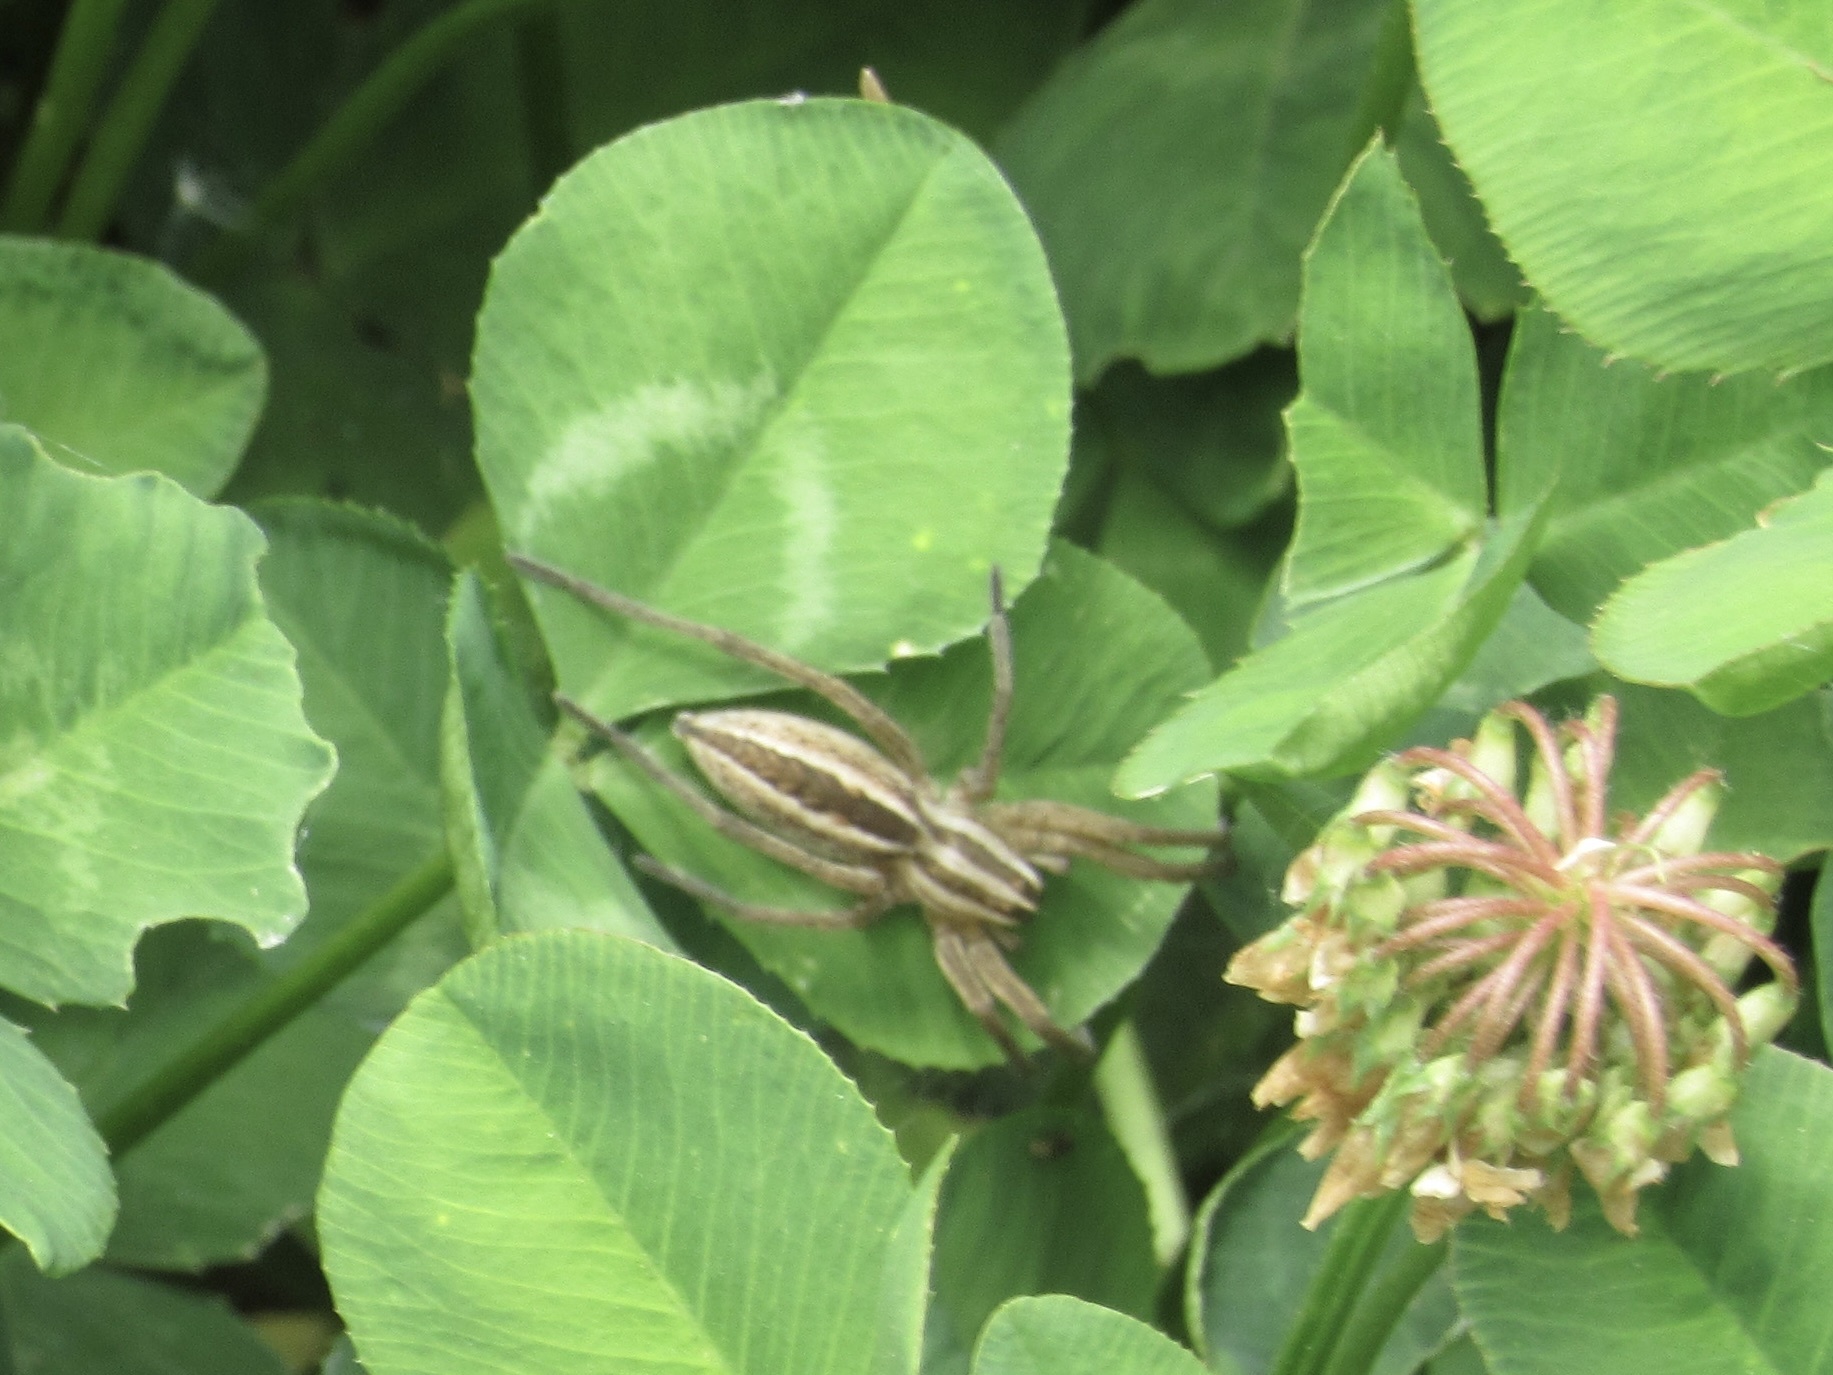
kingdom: Animalia
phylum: Arthropoda
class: Arachnida
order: Araneae
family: Lycosidae
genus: Rabidosa
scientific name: Rabidosa rabida
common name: Rabid wolf spider
